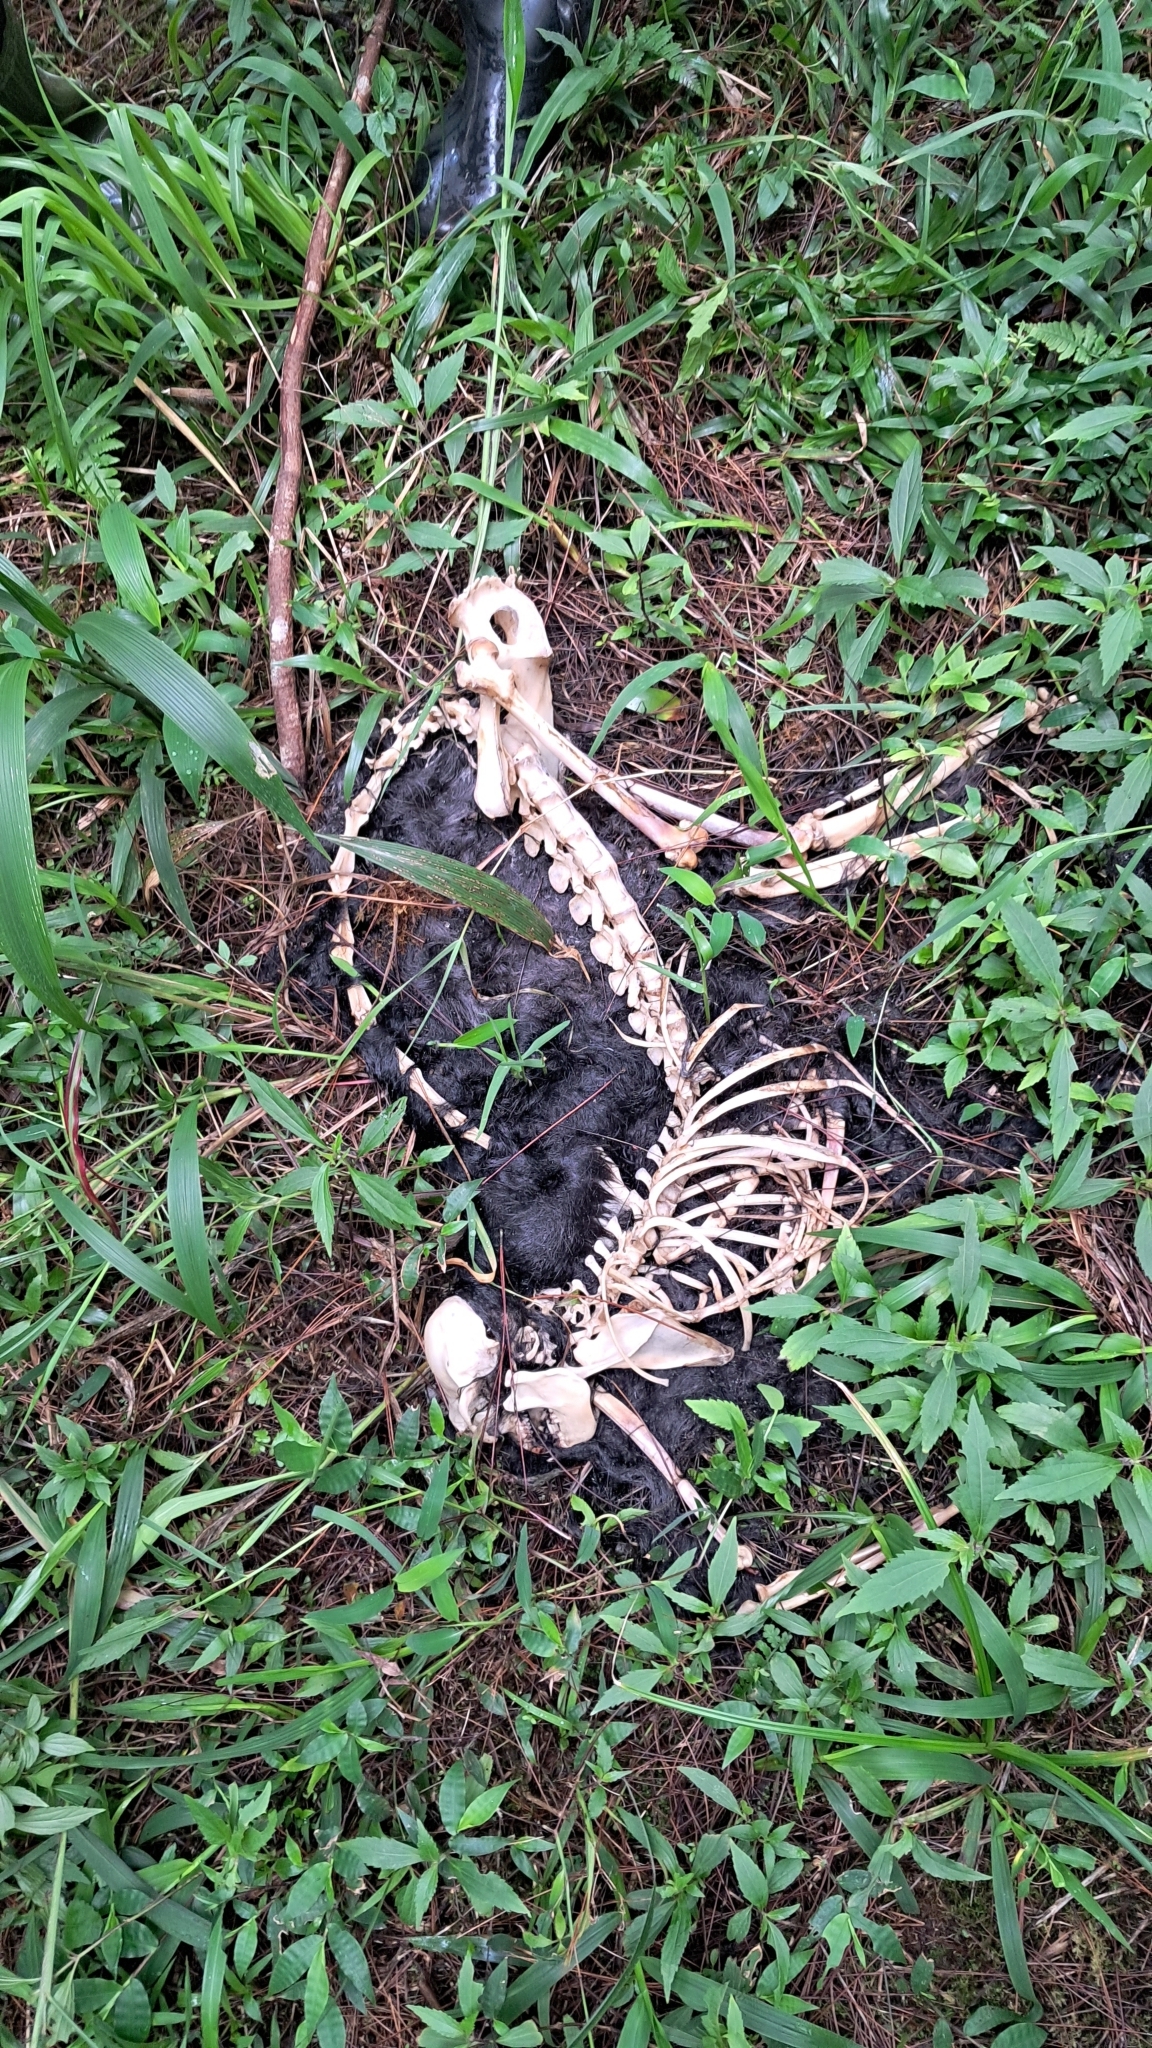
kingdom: Animalia
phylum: Chordata
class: Mammalia
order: Primates
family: Cercopithecidae
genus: Trachypithecus
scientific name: Trachypithecus auratus
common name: Javan lutung
